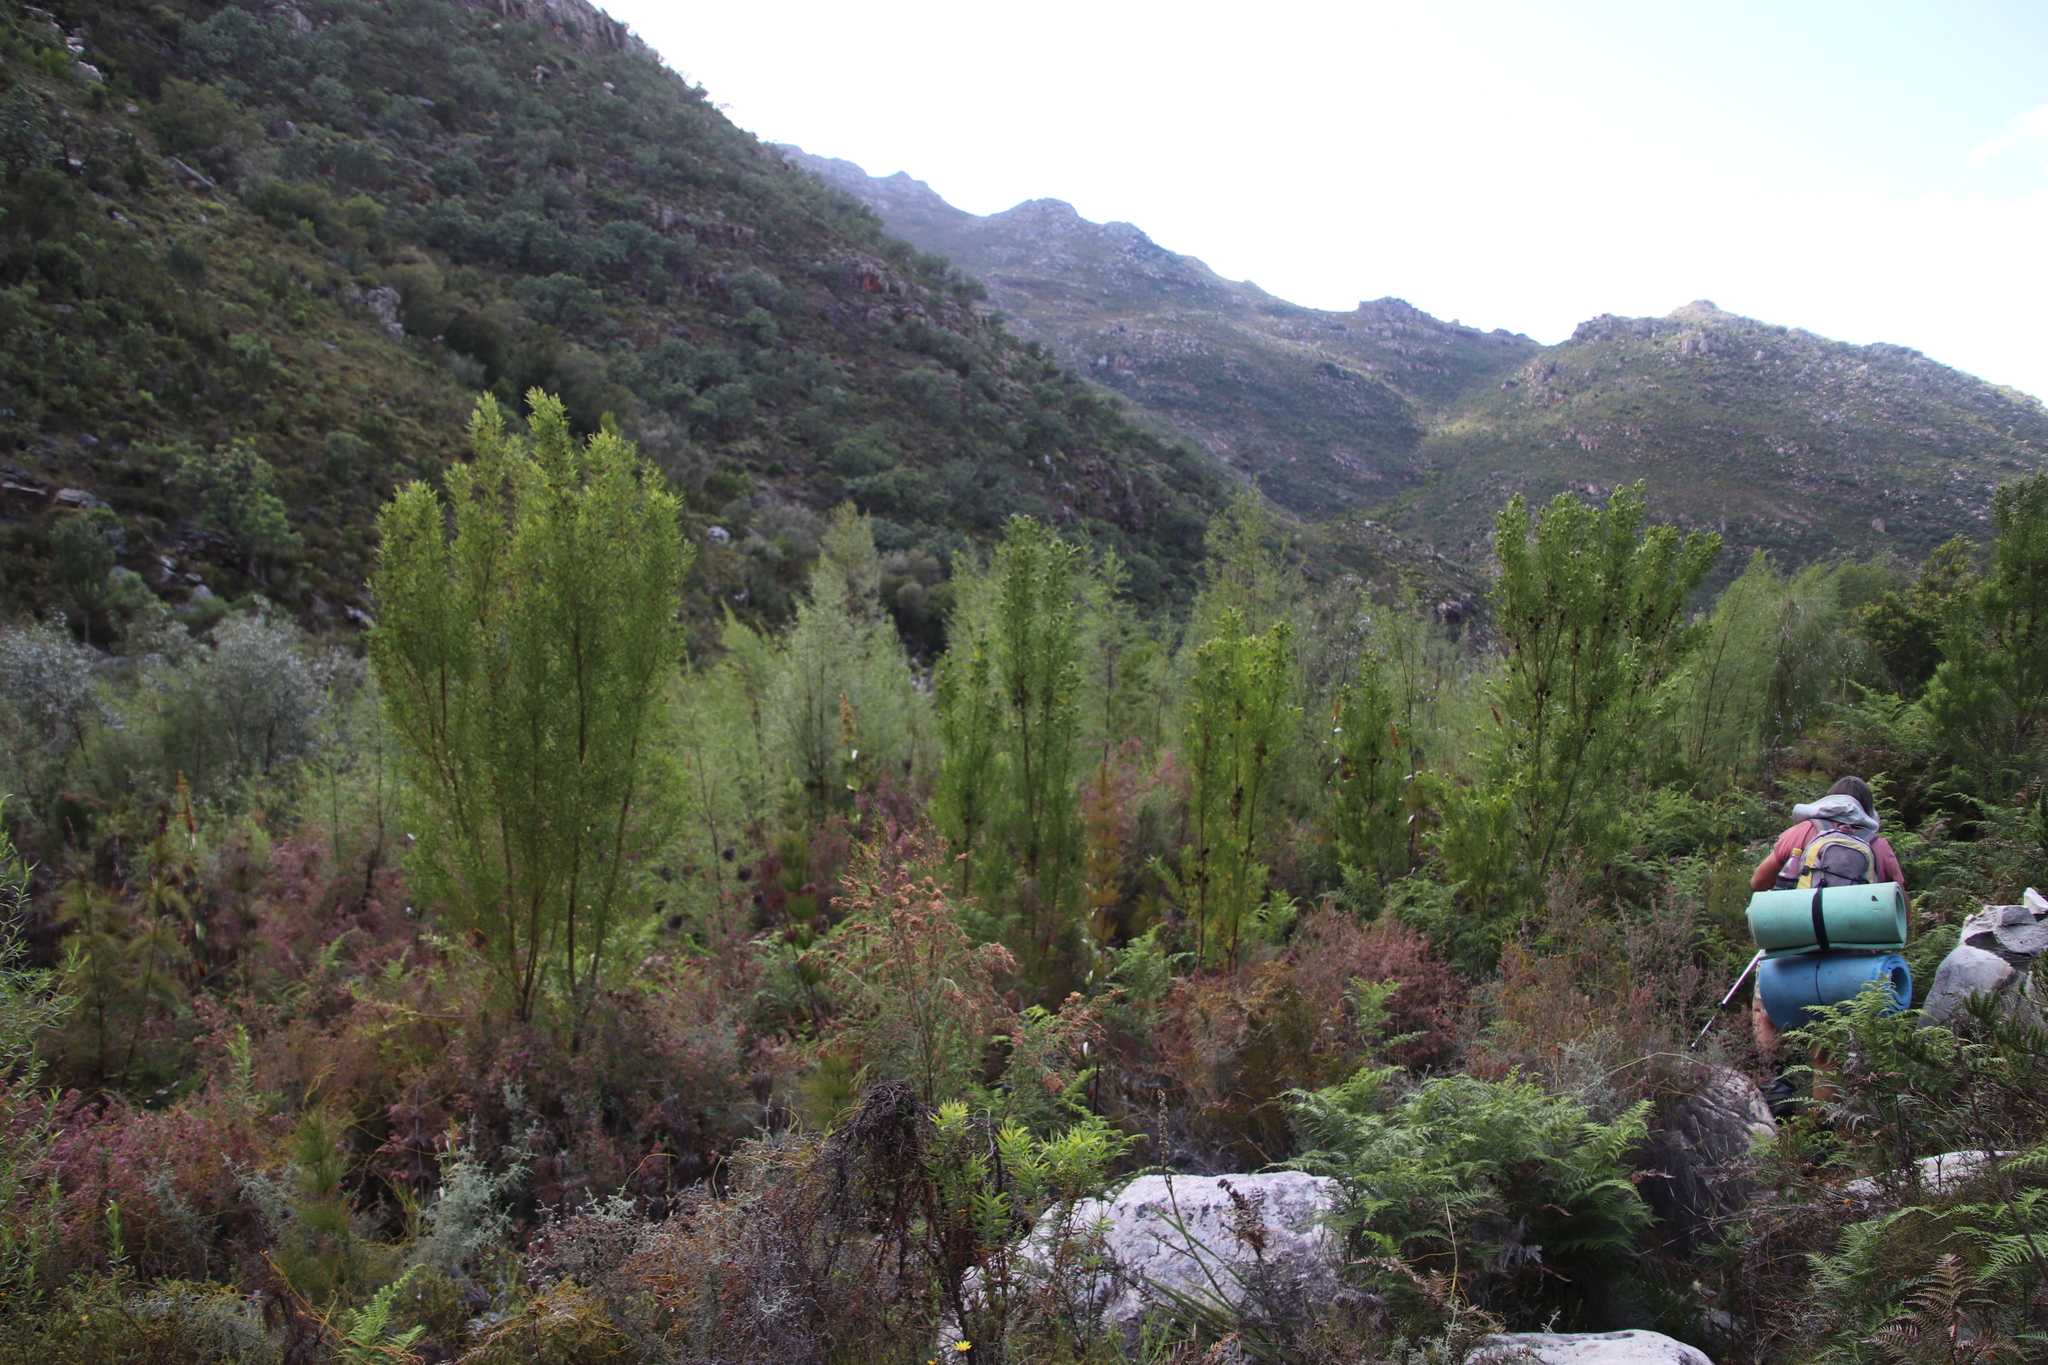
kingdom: Plantae
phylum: Tracheophyta
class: Magnoliopsida
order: Proteales
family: Proteaceae
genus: Leucadendron
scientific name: Leucadendron salicifolium
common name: Common stream conebush
